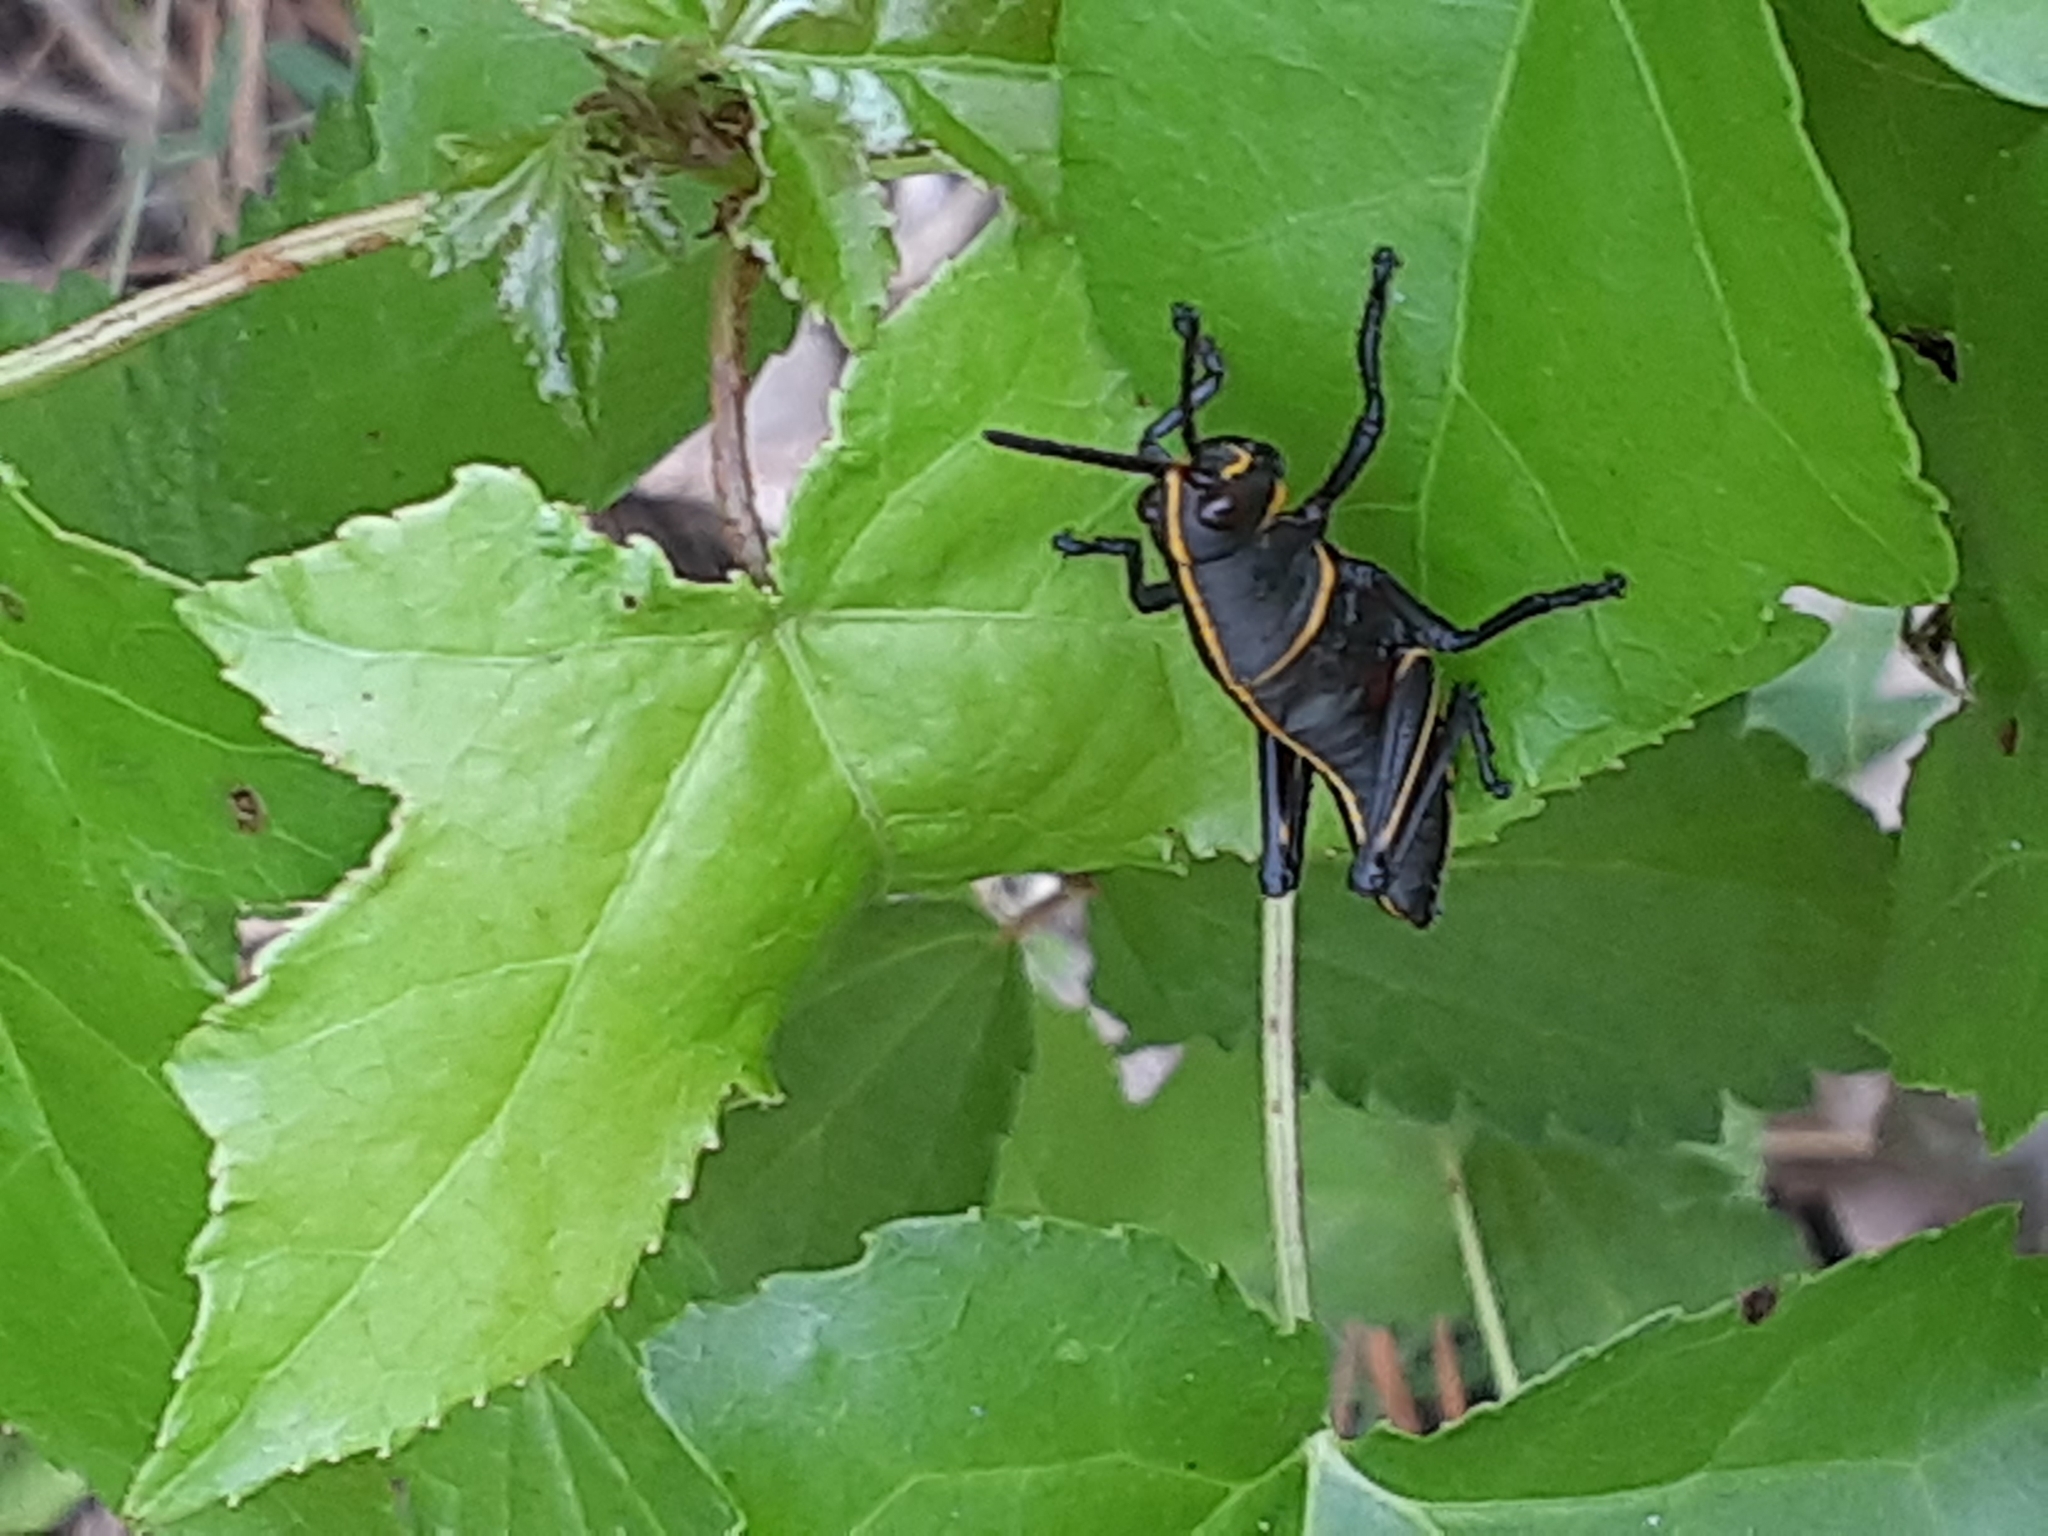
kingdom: Animalia
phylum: Arthropoda
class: Insecta
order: Orthoptera
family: Romaleidae
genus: Romalea
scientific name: Romalea microptera
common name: Eastern lubber grasshopper
